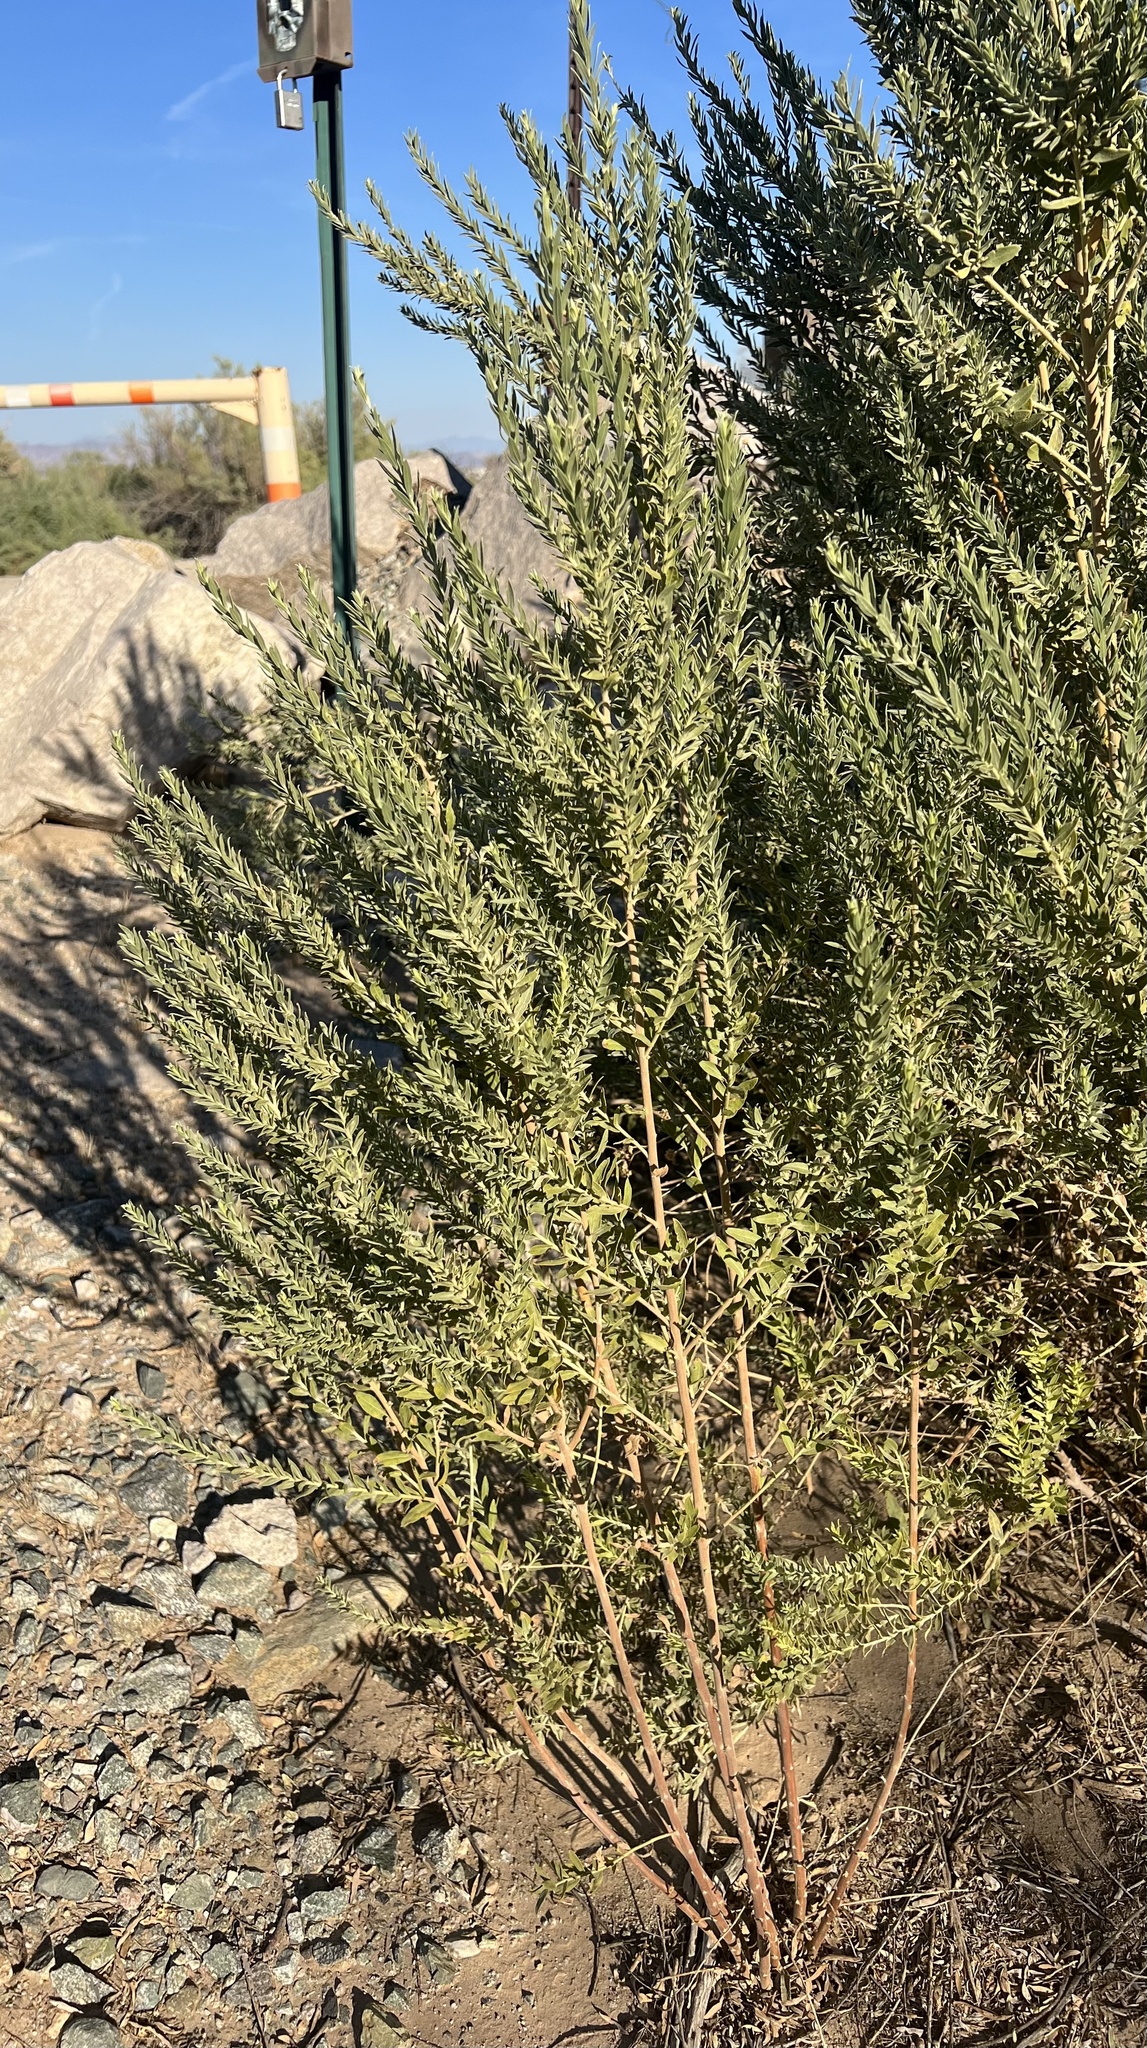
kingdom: Plantae
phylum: Tracheophyta
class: Magnoliopsida
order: Asterales
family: Asteraceae
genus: Pluchea
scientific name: Pluchea sericea
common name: Arrow-weed
